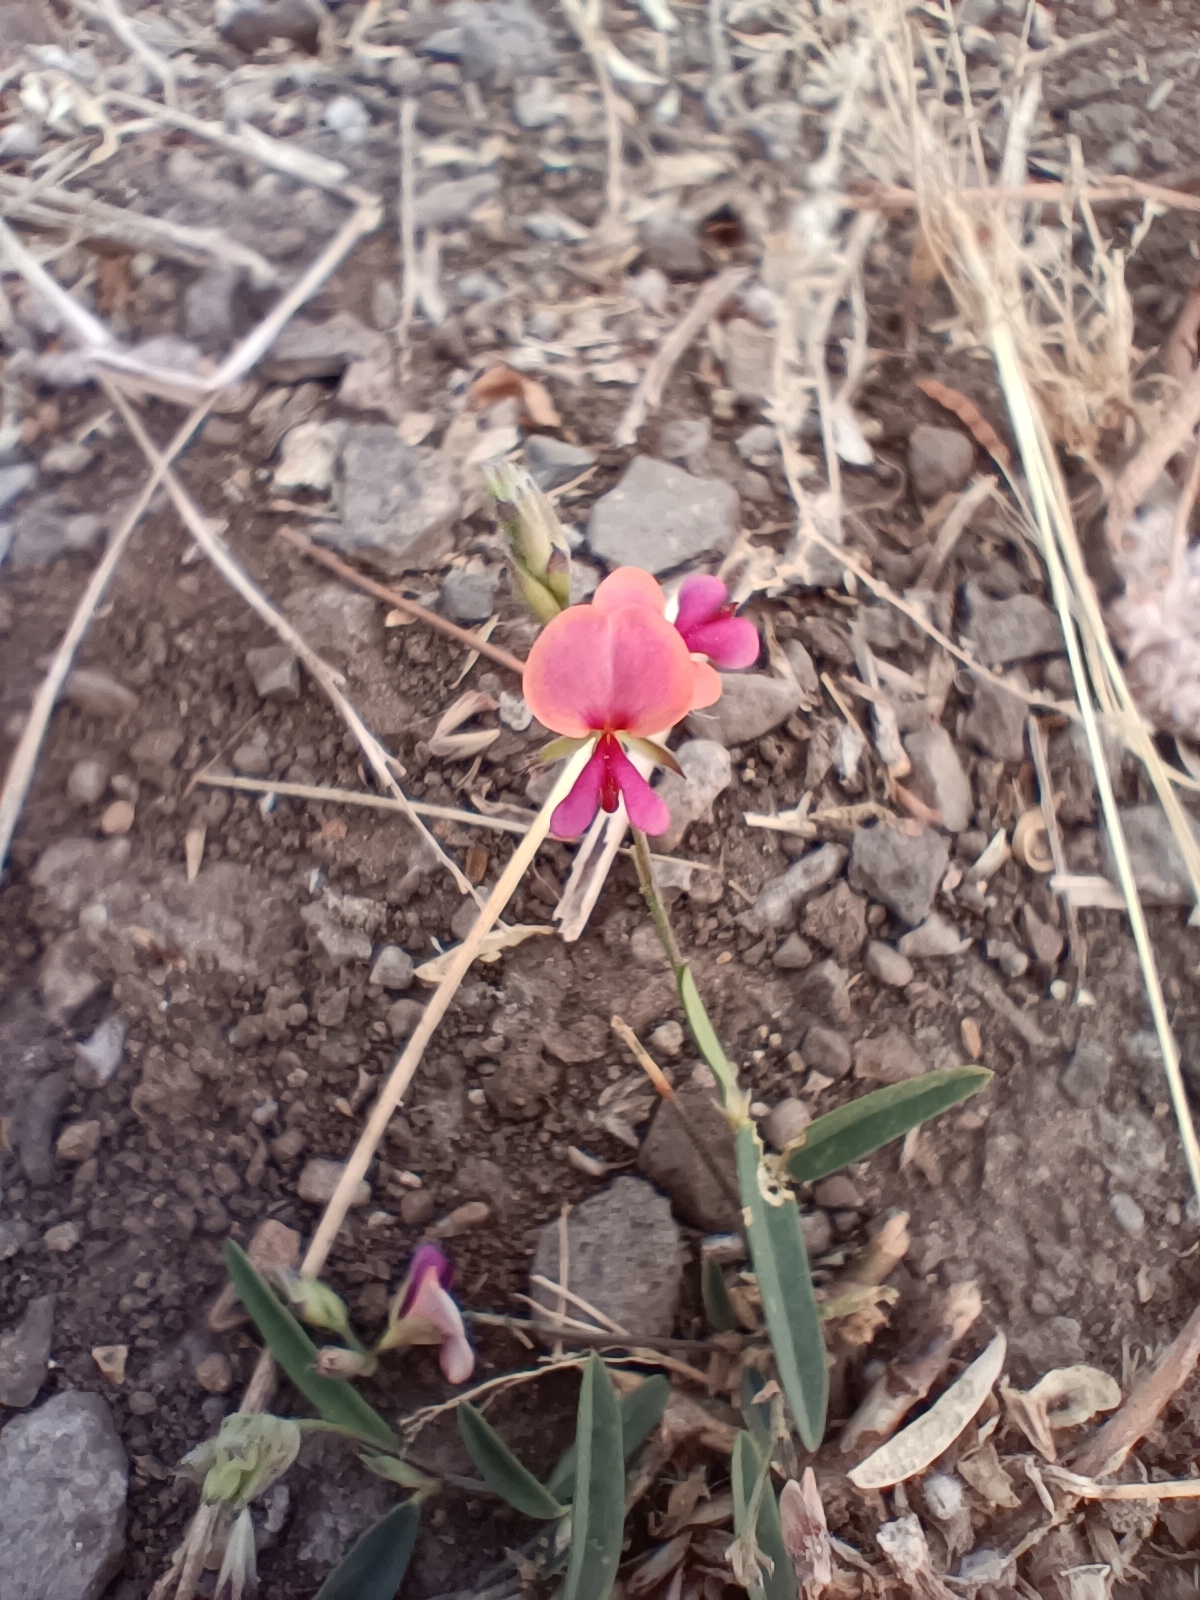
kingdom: Plantae
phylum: Tracheophyta
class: Magnoliopsida
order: Fabales
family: Fabaceae
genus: Alysicarpus
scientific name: Alysicarpus bupleurifolius
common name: Sweet alys
